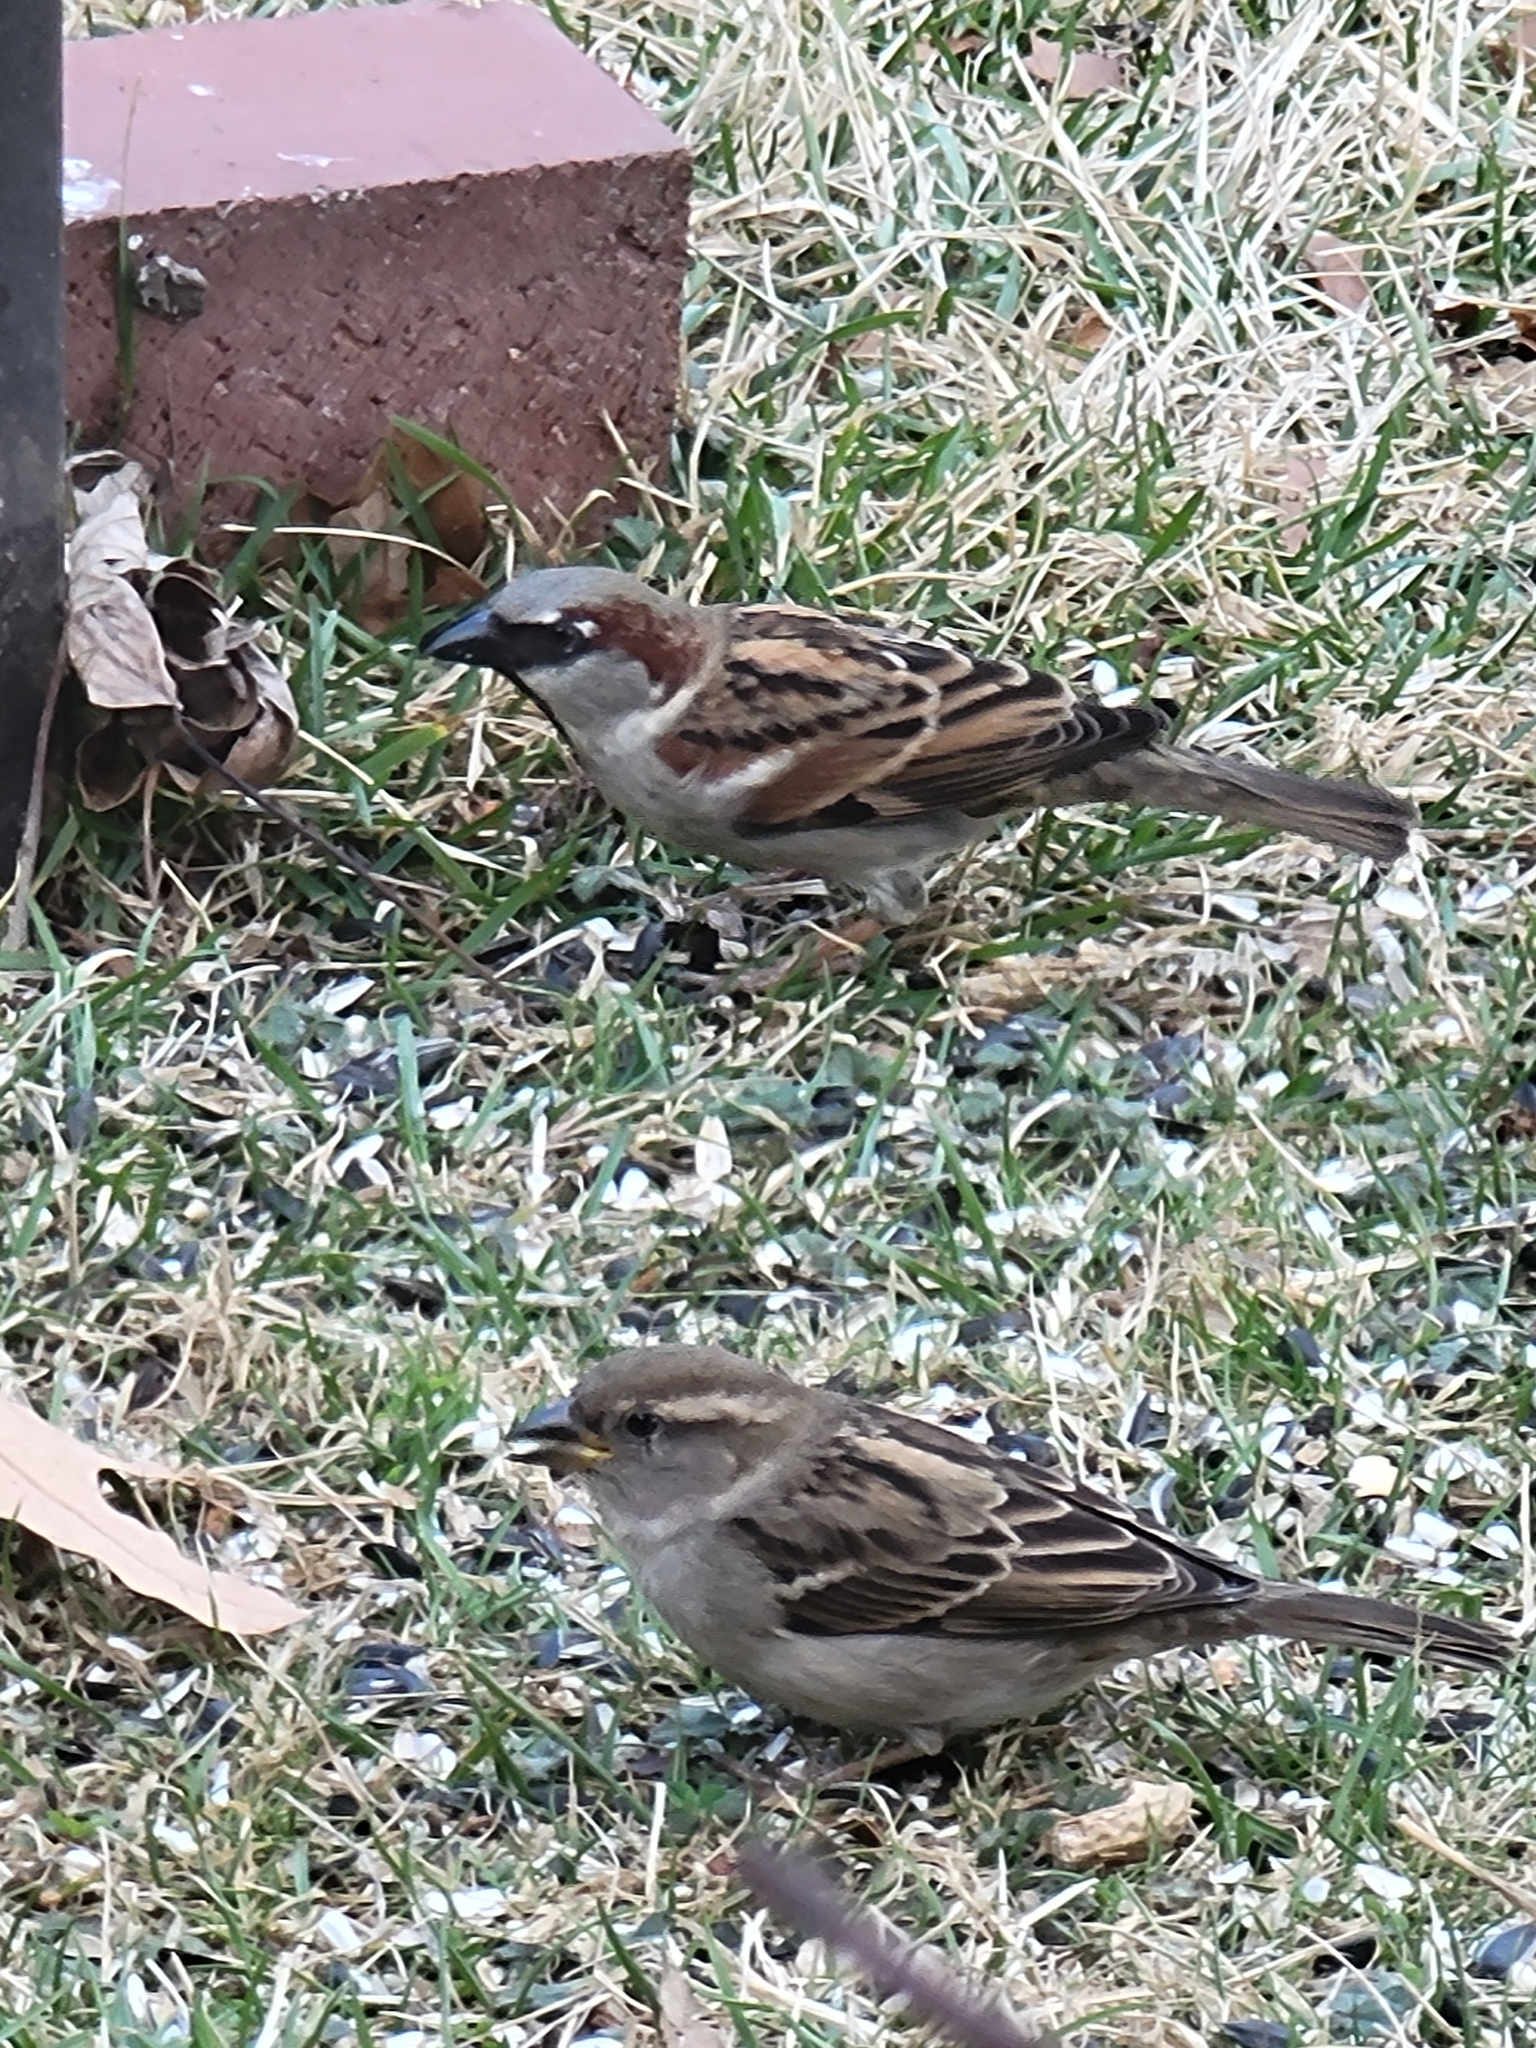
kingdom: Animalia
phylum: Chordata
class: Aves
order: Passeriformes
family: Passeridae
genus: Passer
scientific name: Passer domesticus
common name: House sparrow
